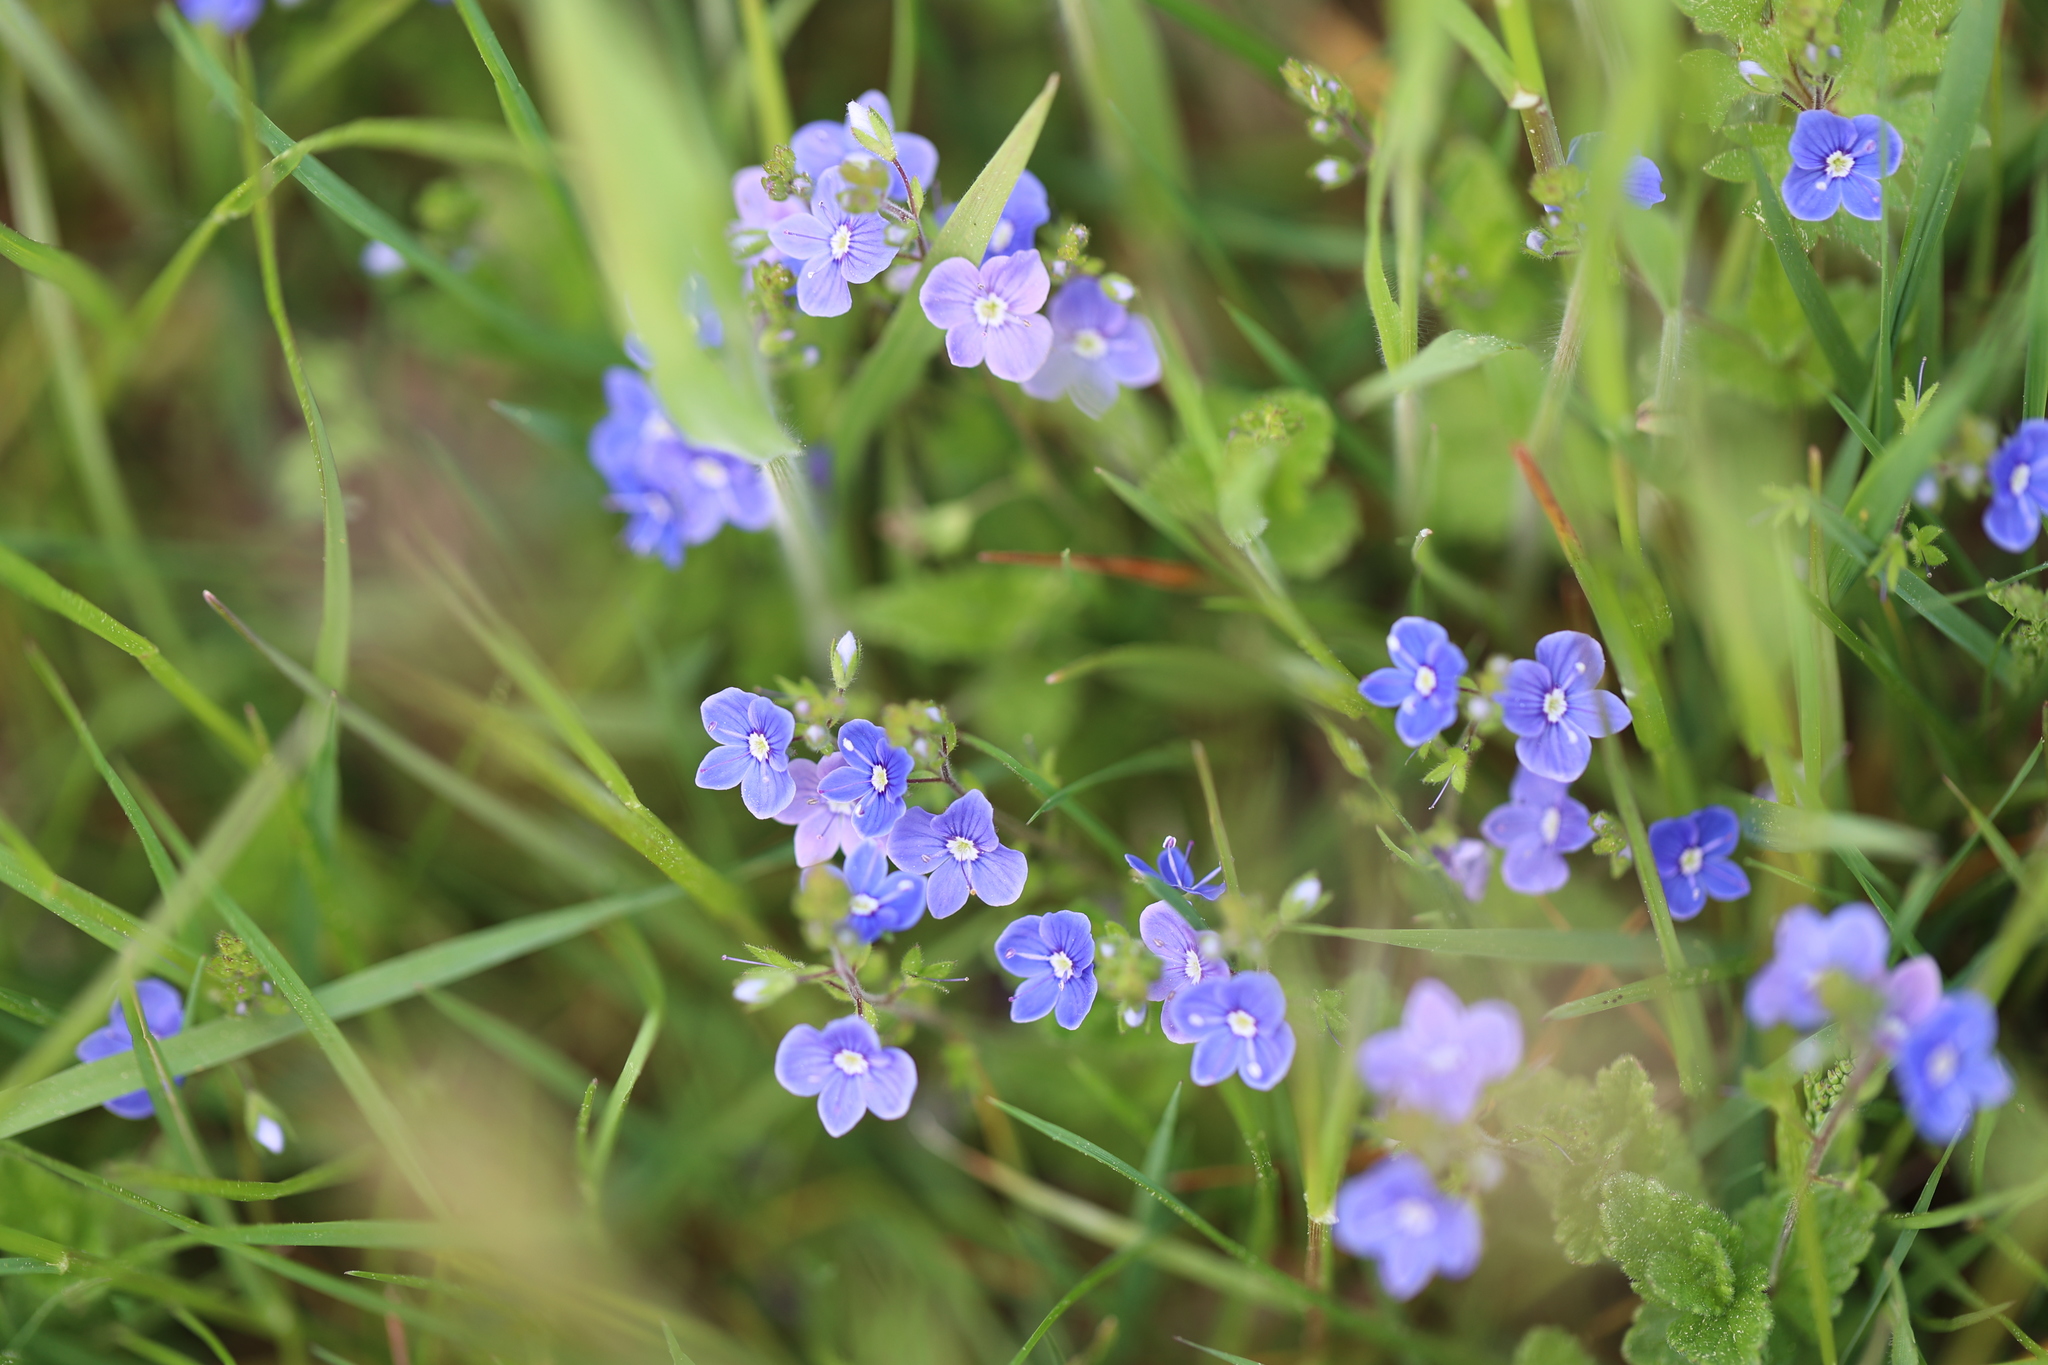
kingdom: Plantae
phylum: Tracheophyta
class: Magnoliopsida
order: Lamiales
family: Plantaginaceae
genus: Veronica
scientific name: Veronica chamaedrys
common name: Germander speedwell
